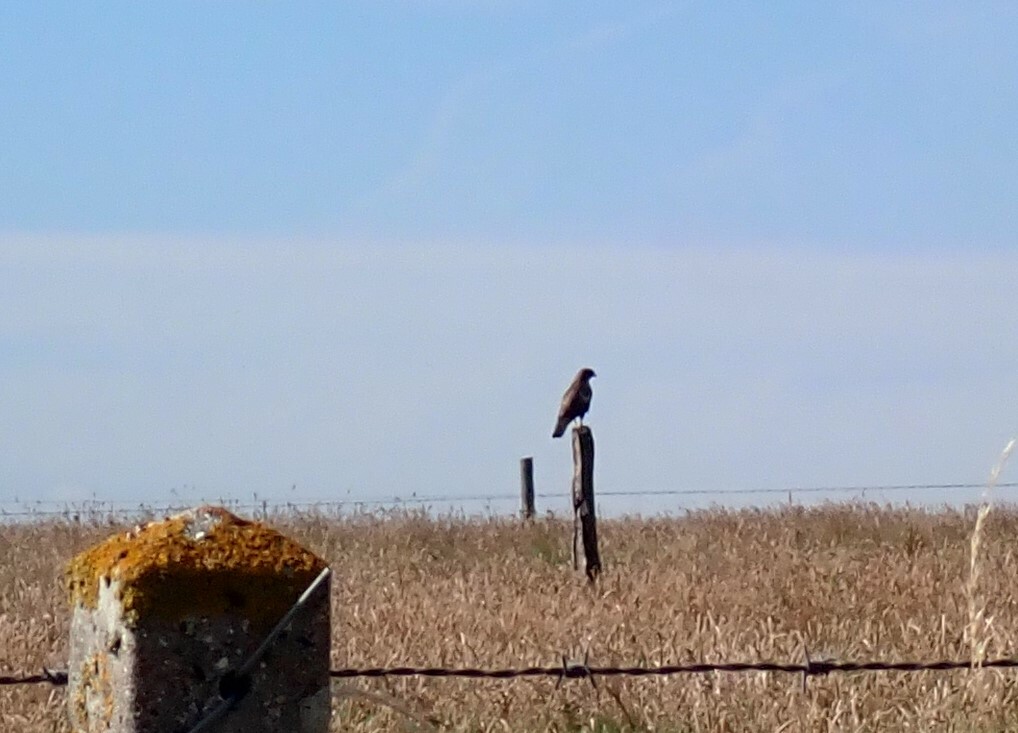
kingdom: Animalia
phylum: Chordata
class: Aves
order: Accipitriformes
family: Accipitridae
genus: Buteo
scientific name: Buteo buteo
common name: Common buzzard
